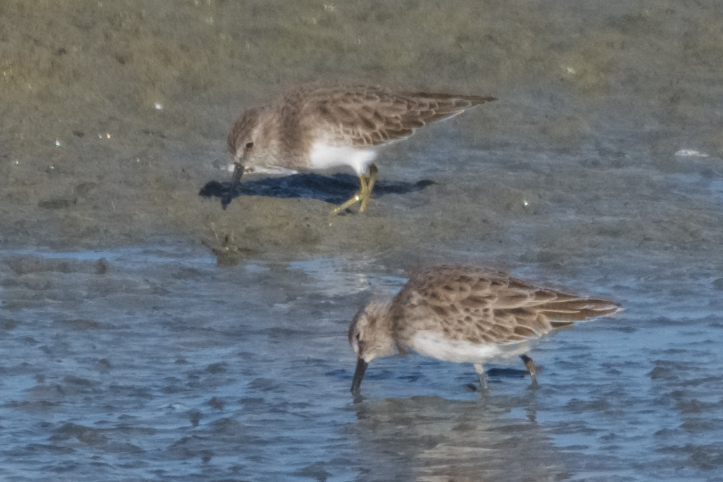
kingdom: Animalia
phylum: Chordata
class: Aves
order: Charadriiformes
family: Scolopacidae
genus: Calidris
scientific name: Calidris minutilla
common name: Least sandpiper
